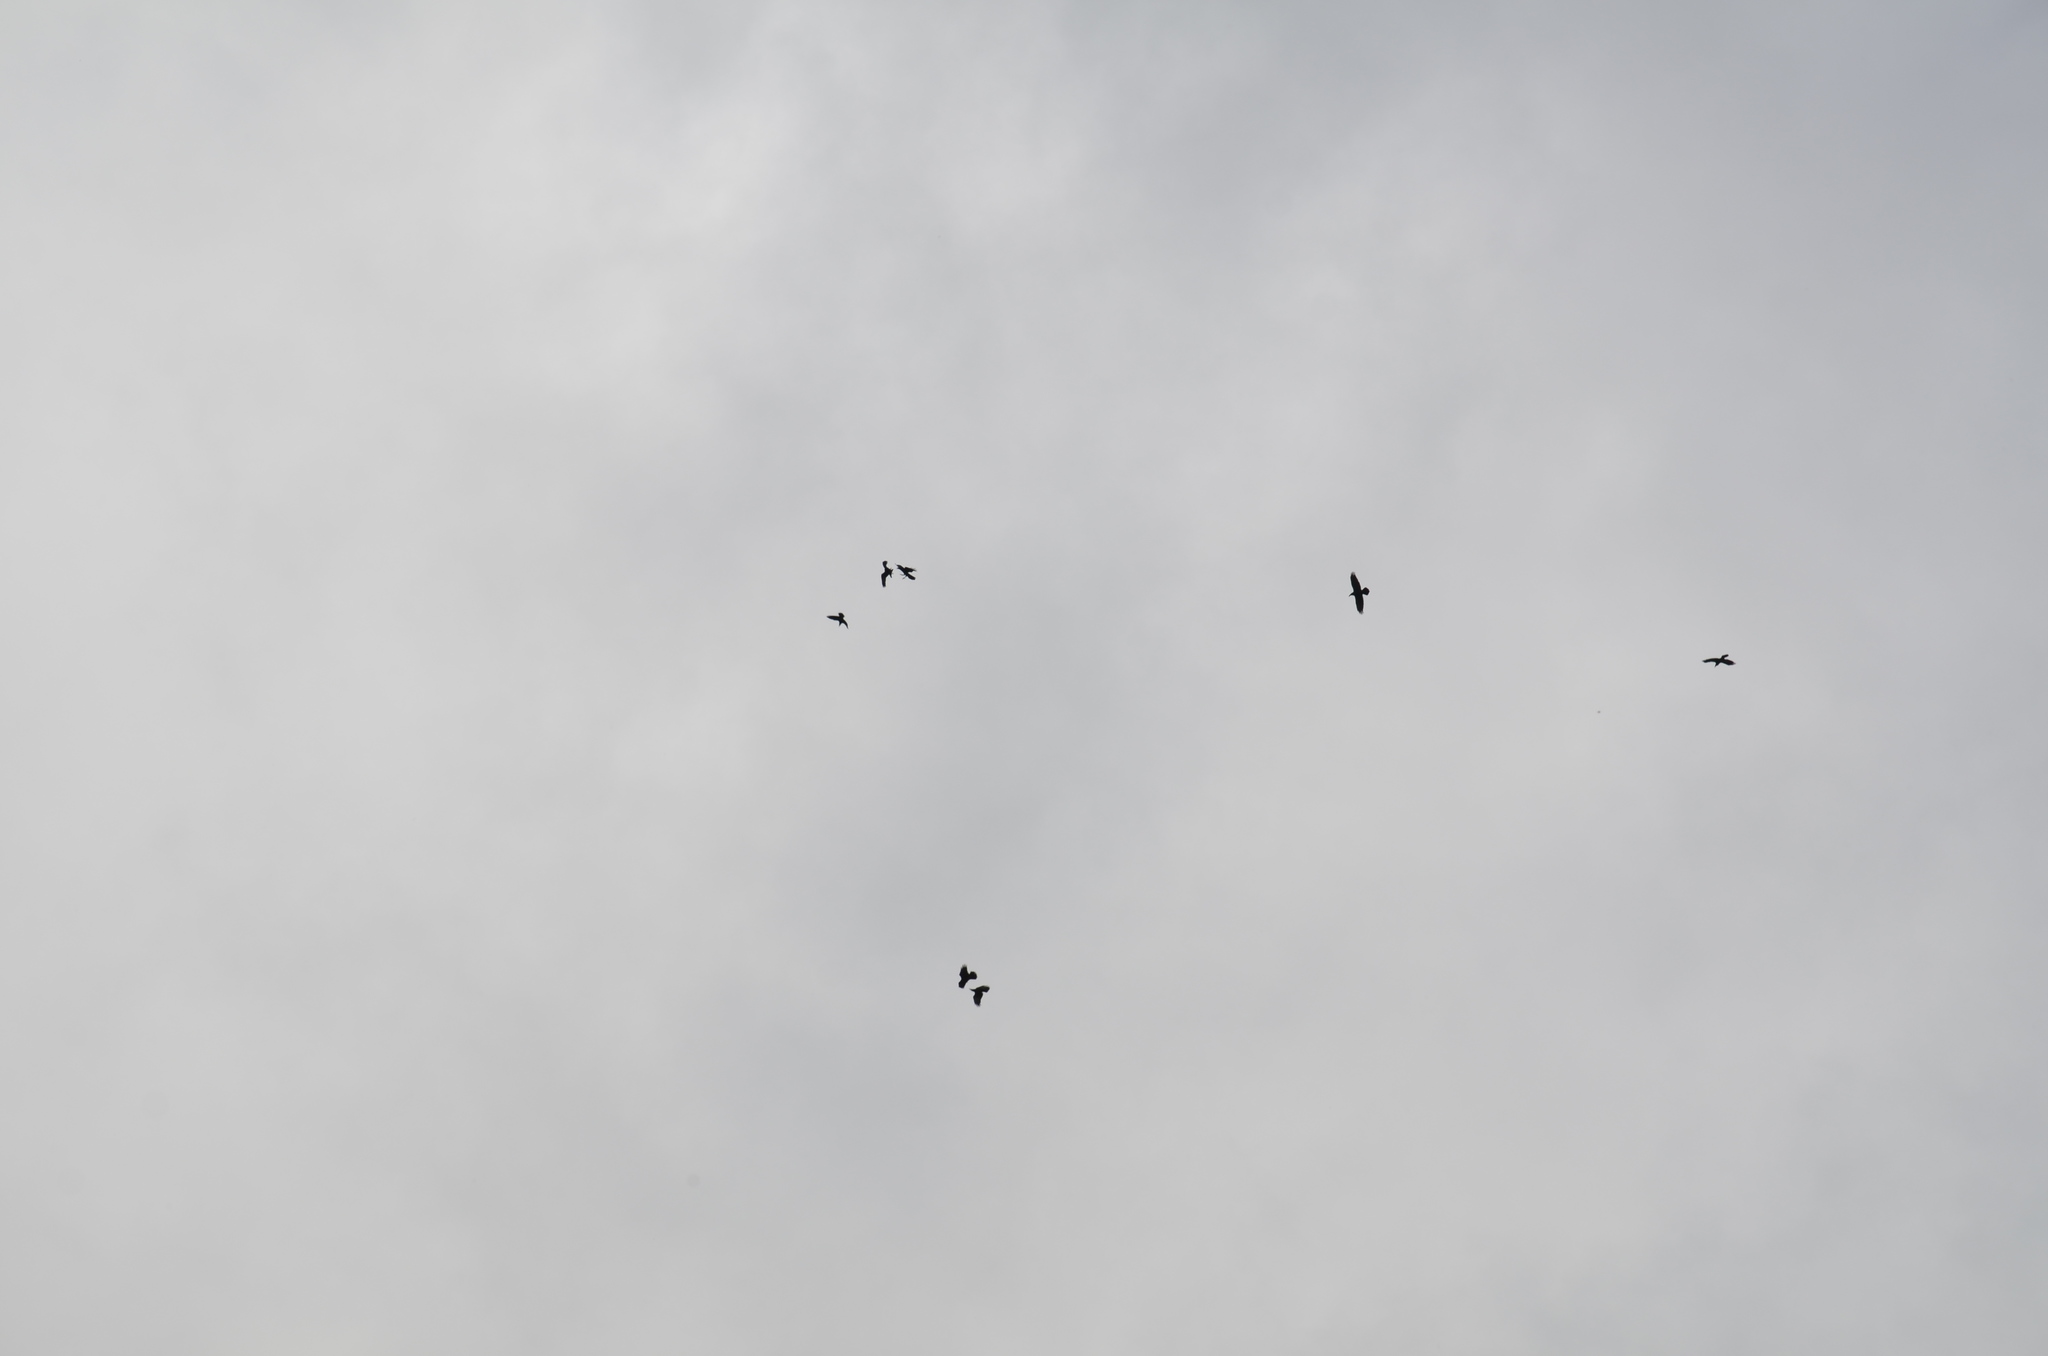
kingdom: Animalia
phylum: Chordata
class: Aves
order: Passeriformes
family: Corvidae
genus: Corvus
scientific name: Corvus corax
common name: Common raven
